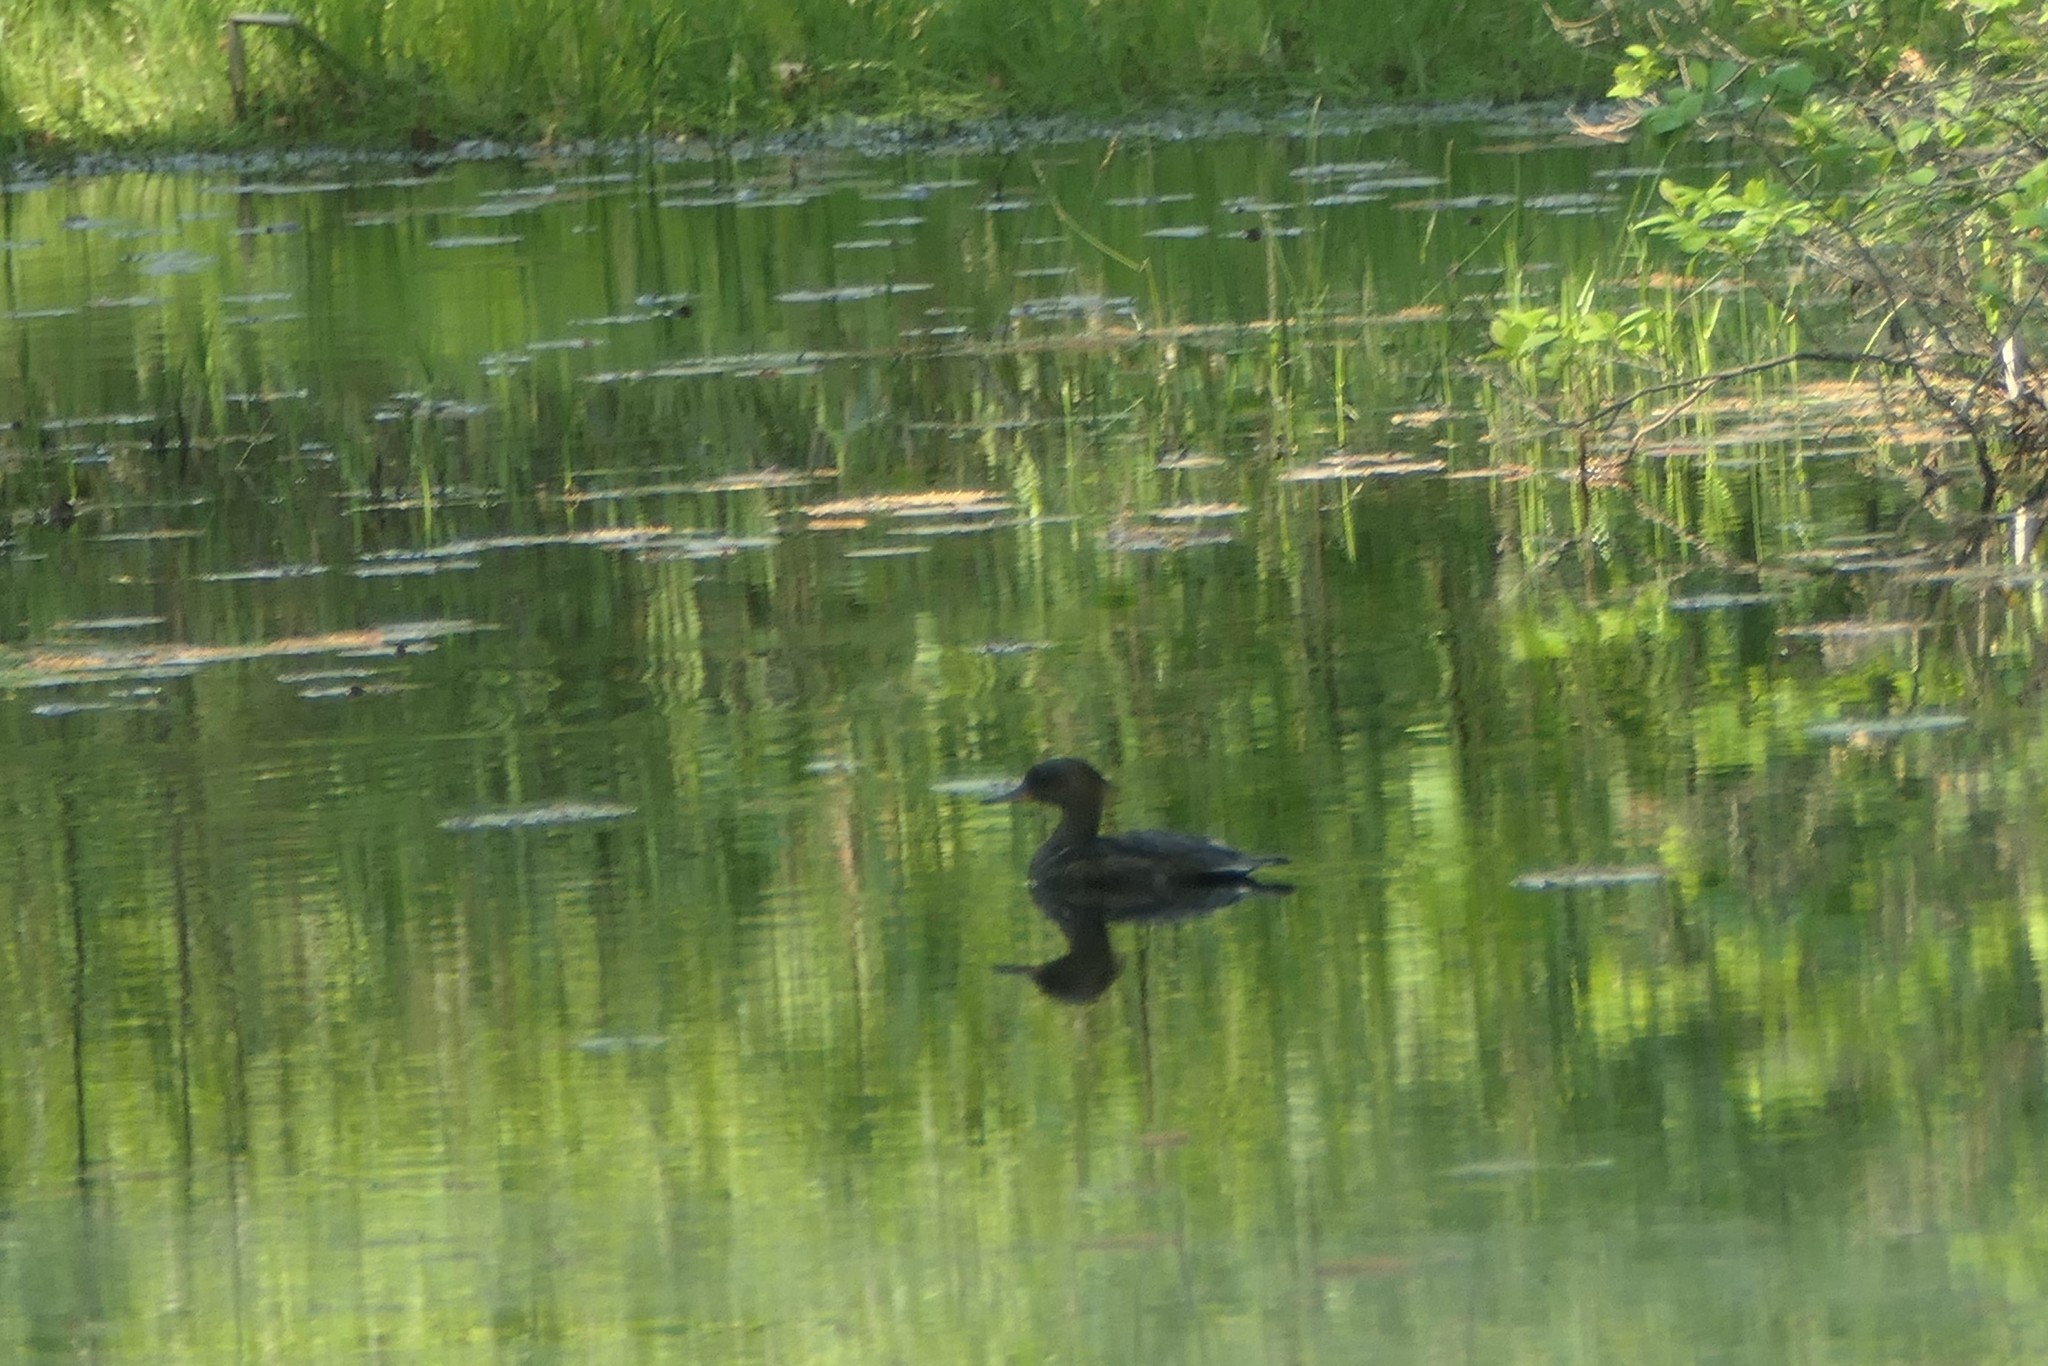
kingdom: Animalia
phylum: Chordata
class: Aves
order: Anseriformes
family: Anatidae
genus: Lophodytes
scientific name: Lophodytes cucullatus
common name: Hooded merganser
